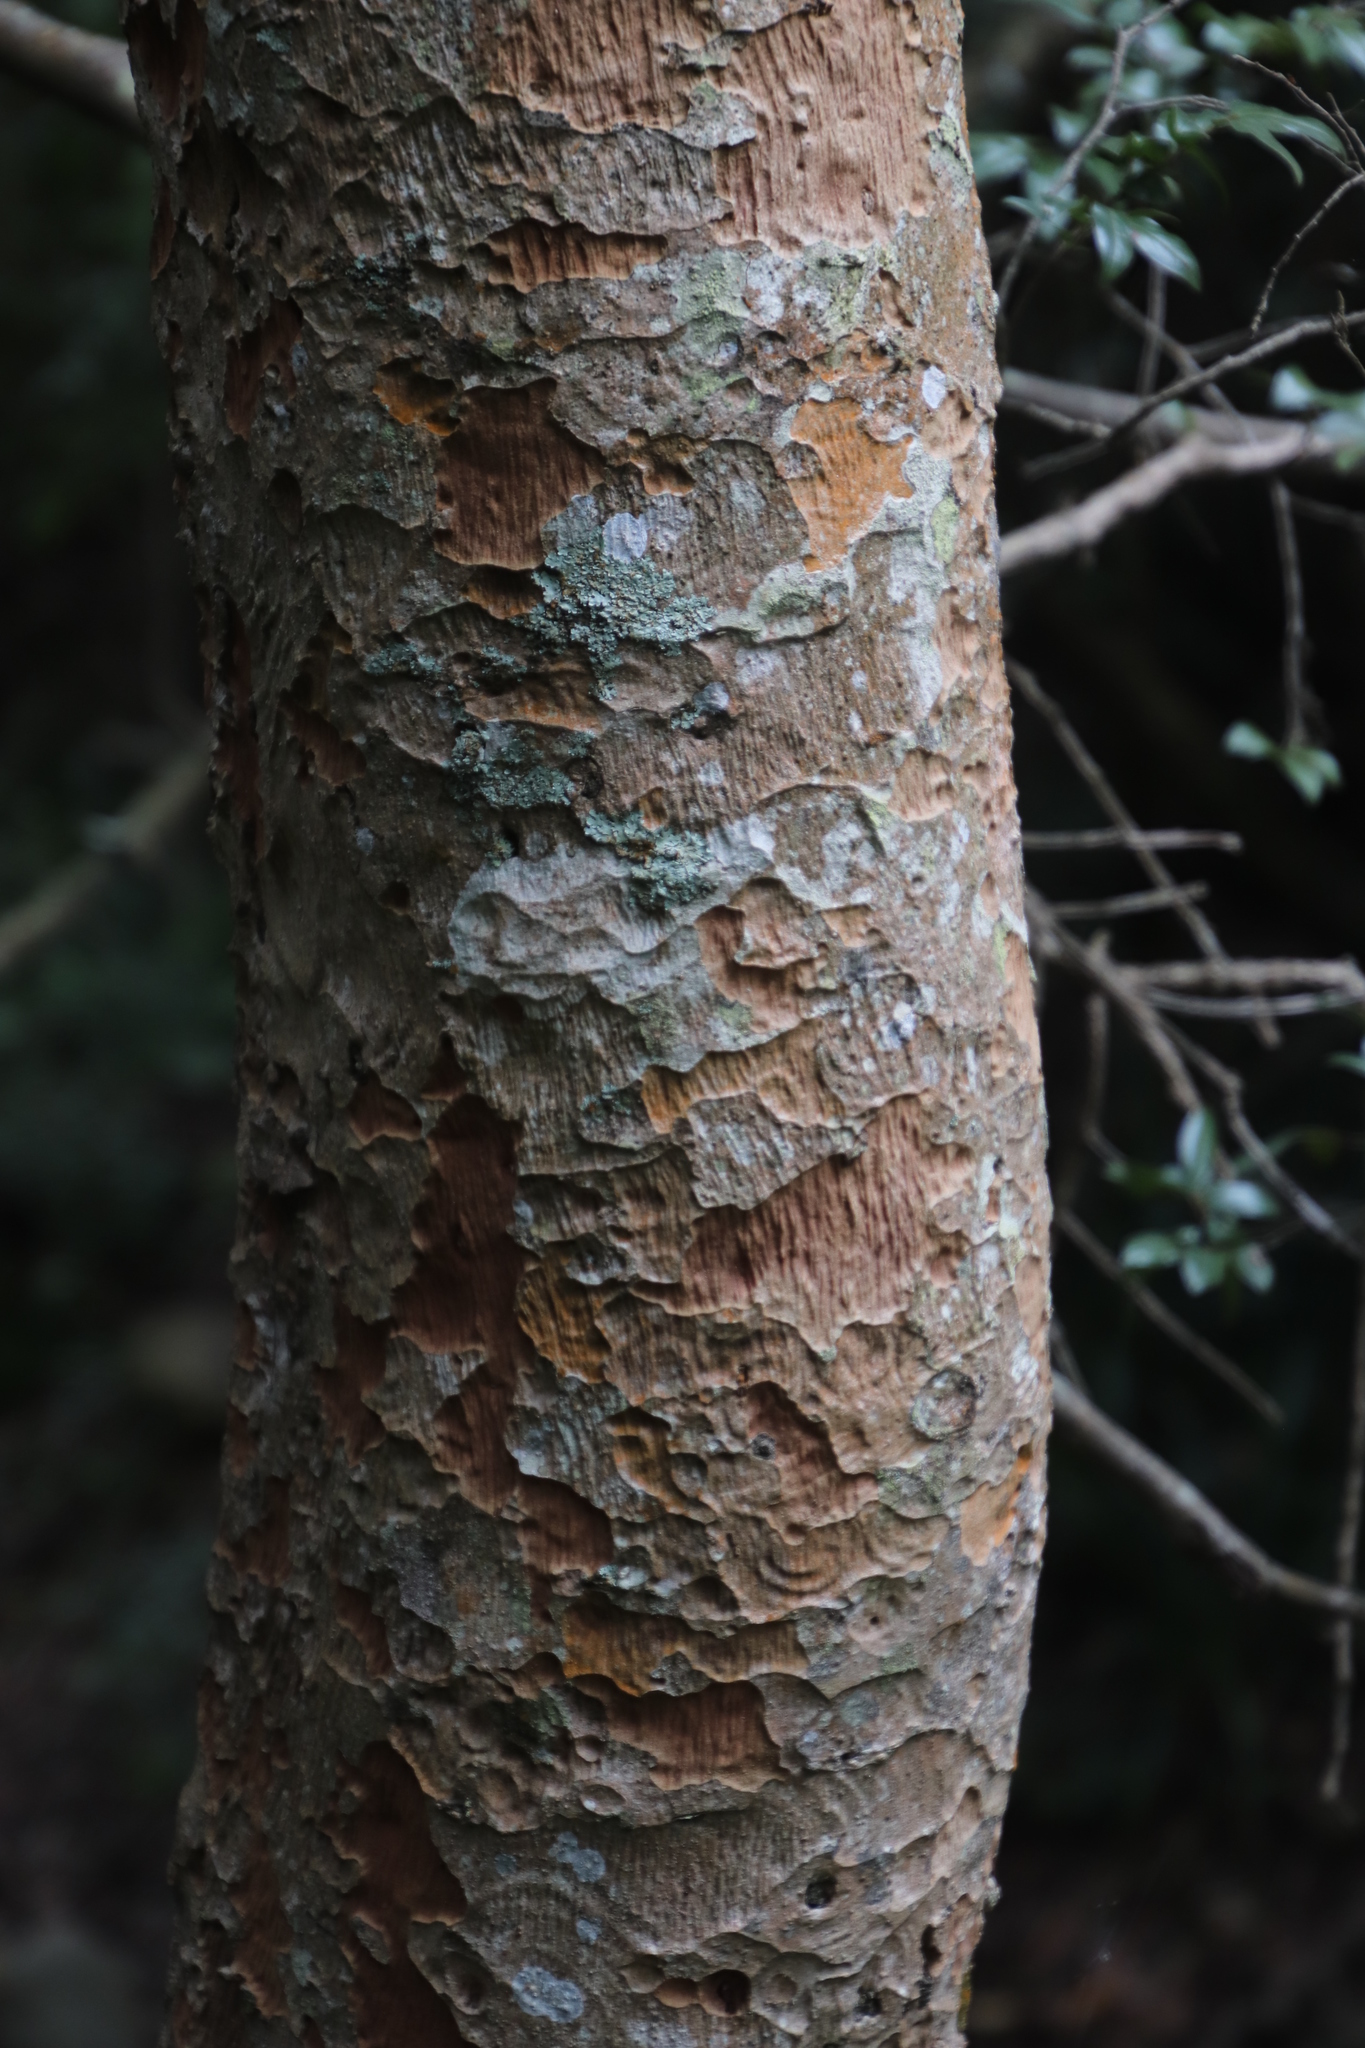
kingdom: Plantae
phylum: Tracheophyta
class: Magnoliopsida
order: Myrtales
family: Myrtaceae
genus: Heteropyxis
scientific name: Heteropyxis canescens
